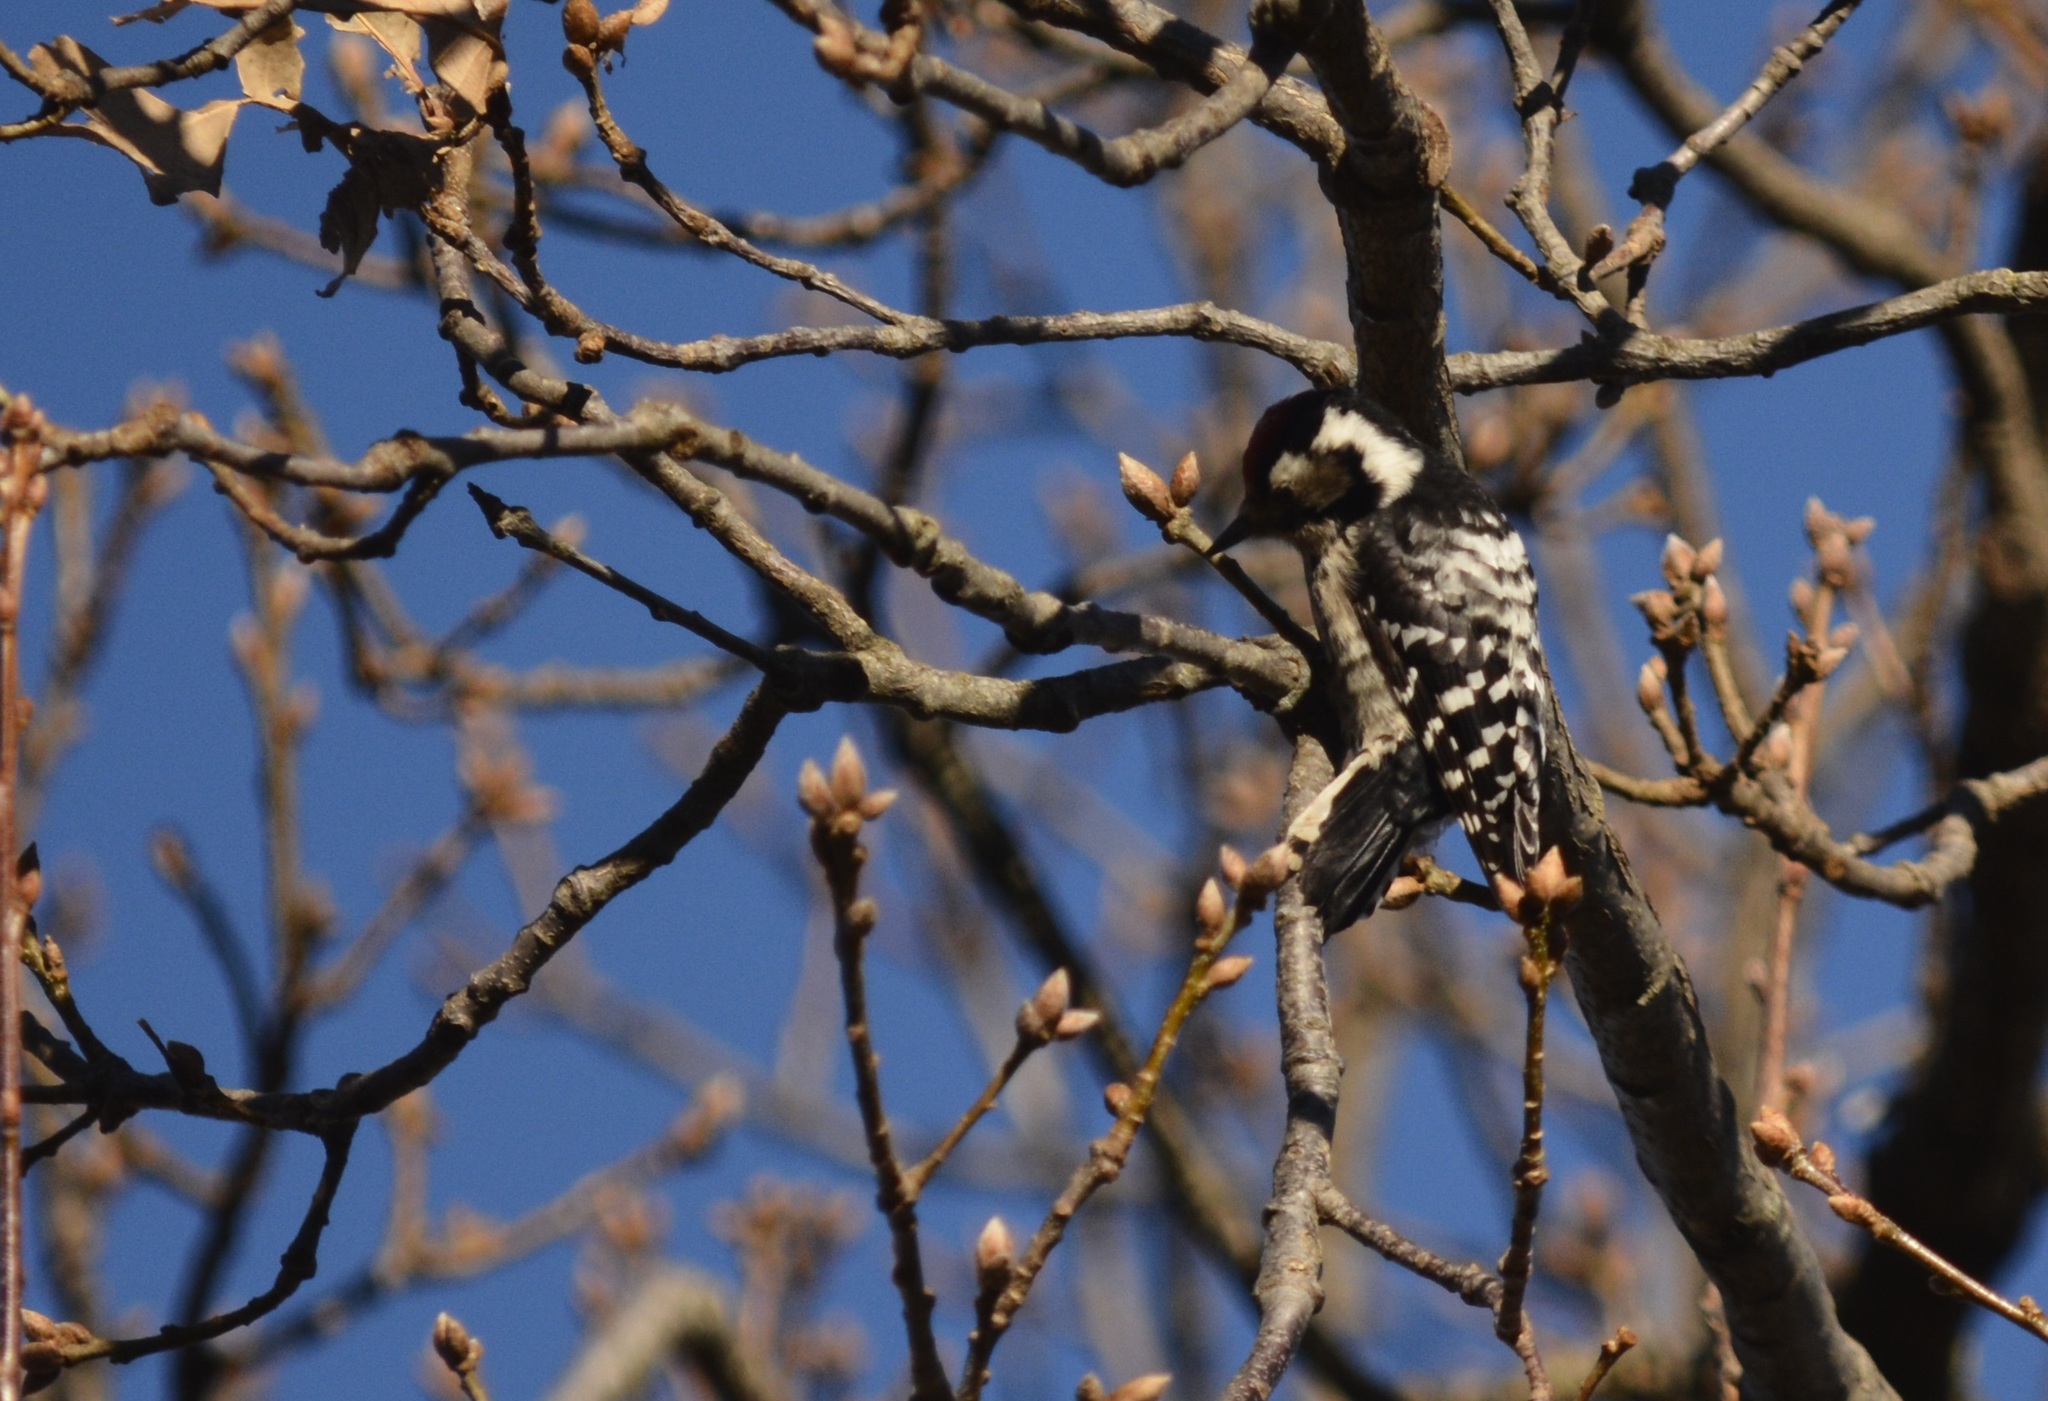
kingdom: Animalia
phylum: Chordata
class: Aves
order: Piciformes
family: Picidae
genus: Dryobates
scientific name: Dryobates minor
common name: Lesser spotted woodpecker
